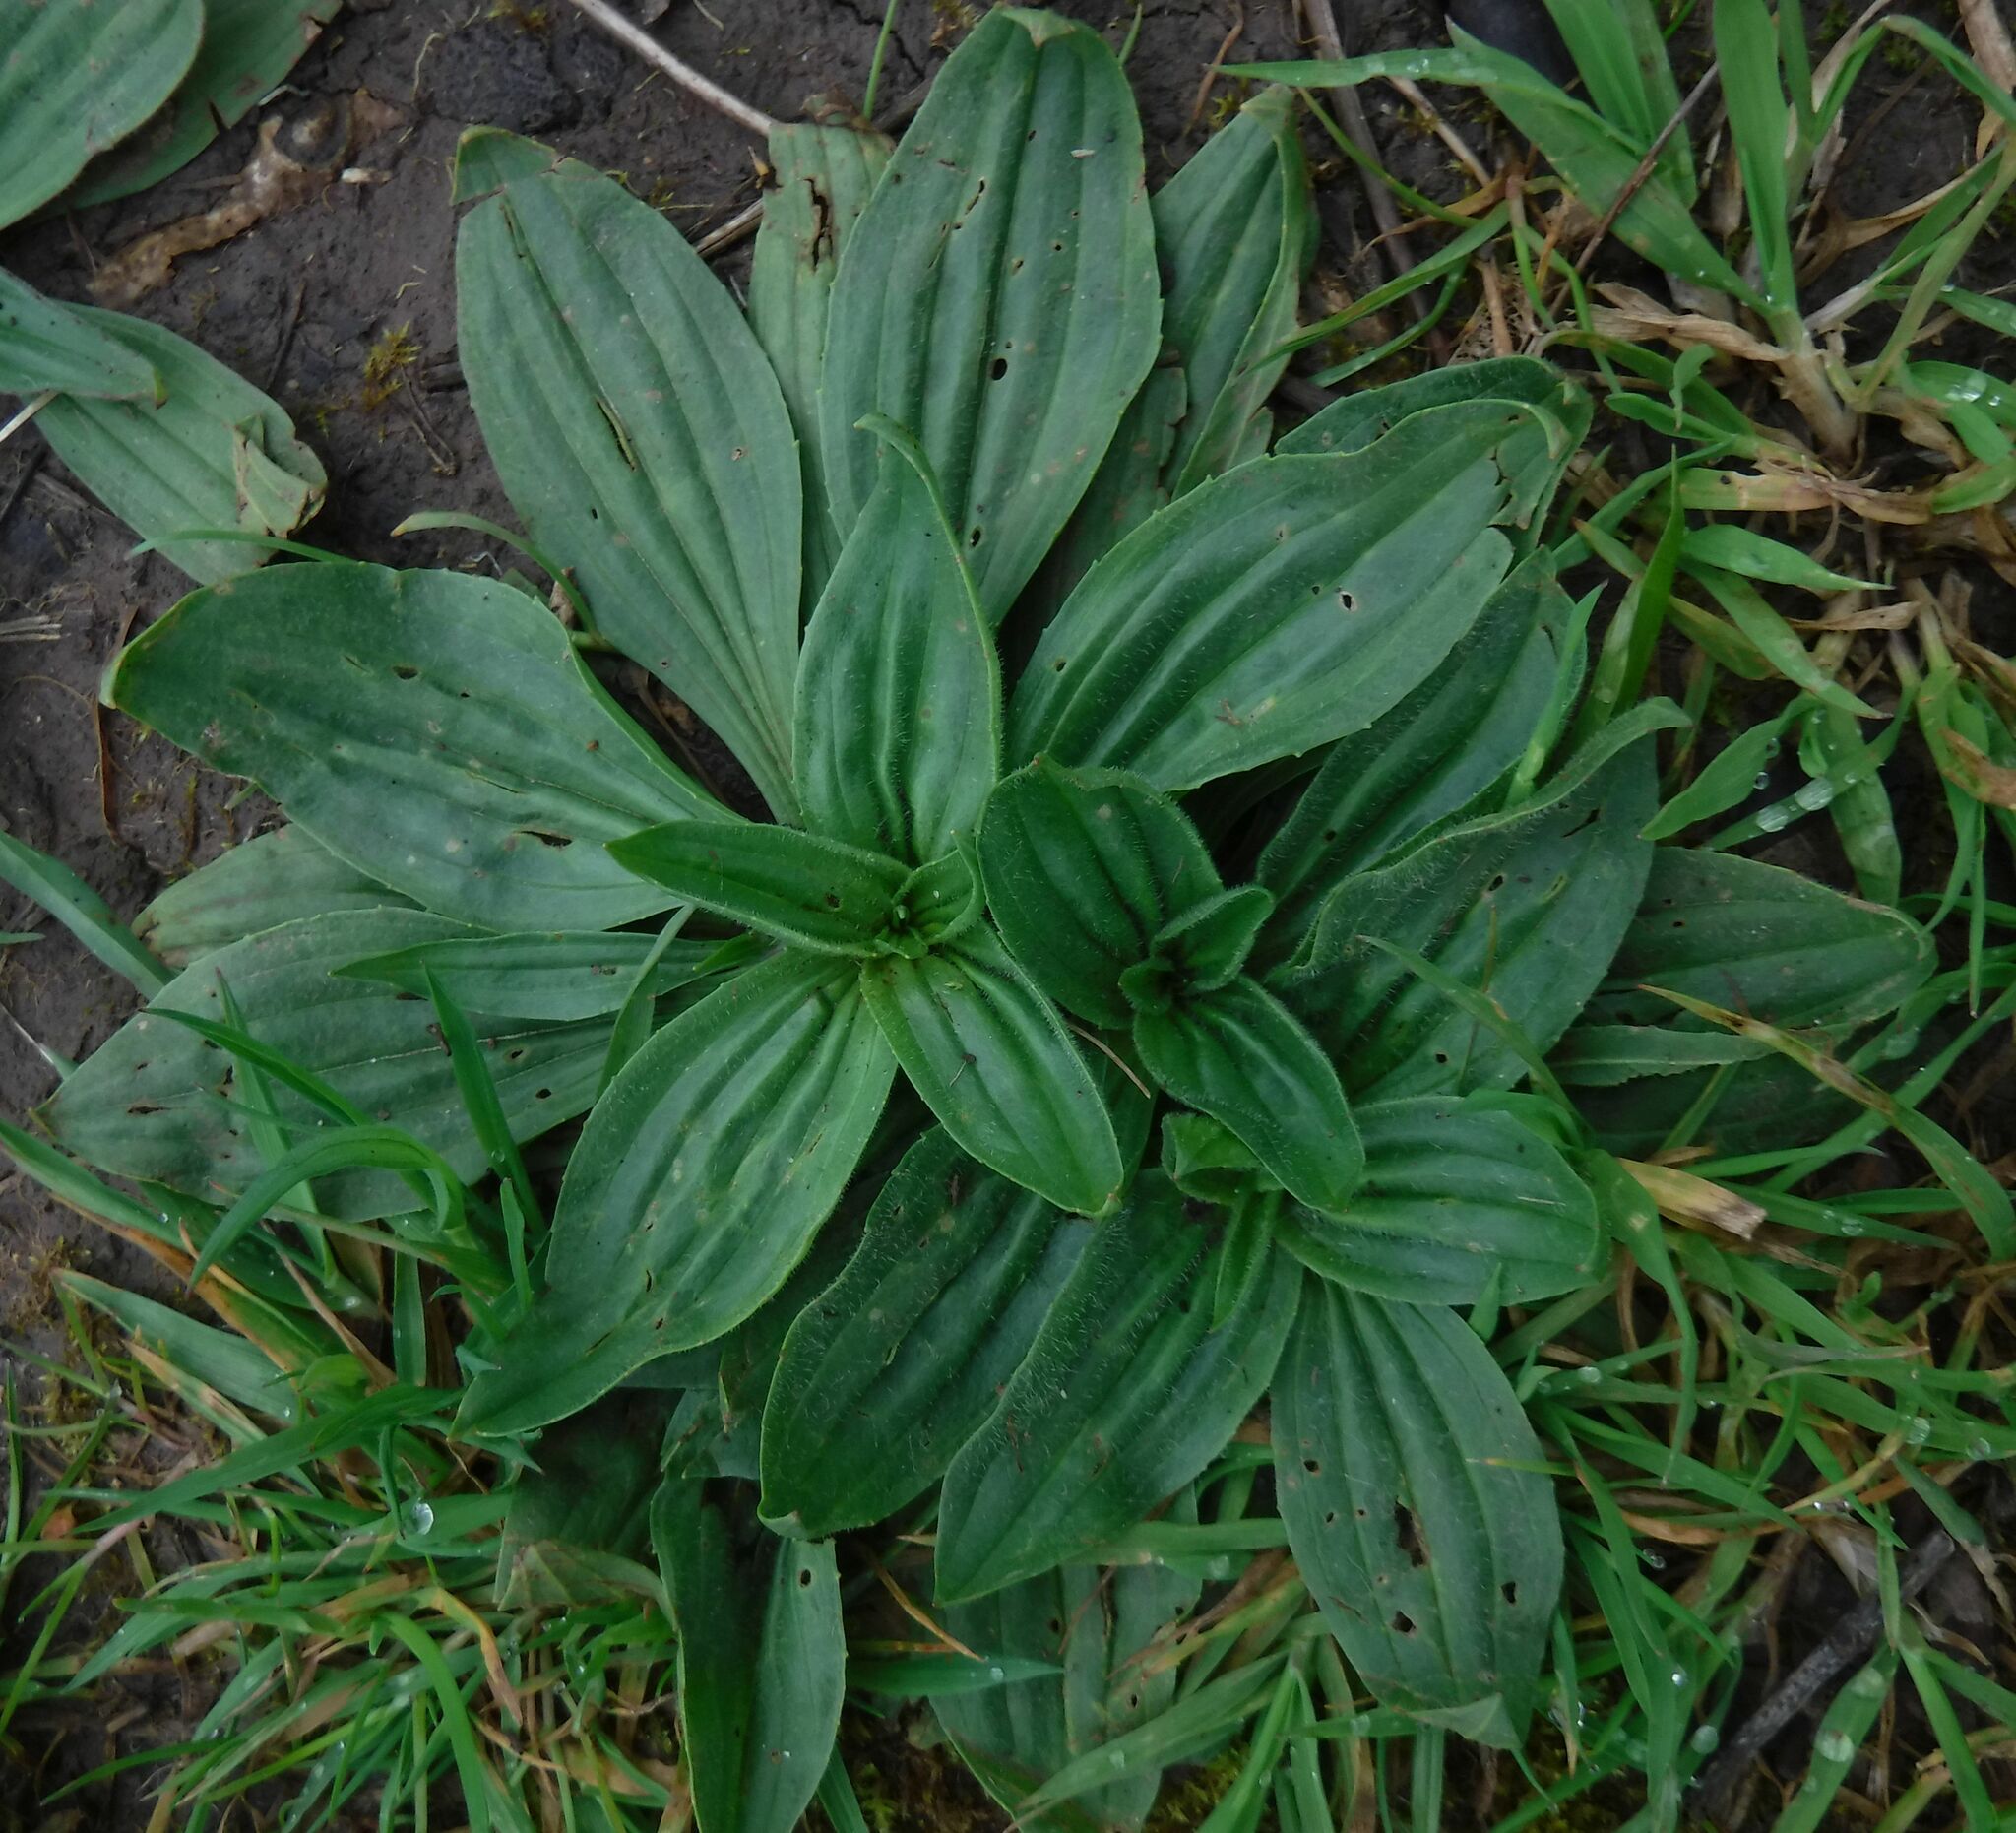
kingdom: Plantae
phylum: Tracheophyta
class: Magnoliopsida
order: Lamiales
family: Plantaginaceae
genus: Plantago
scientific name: Plantago media
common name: Hoary plantain
